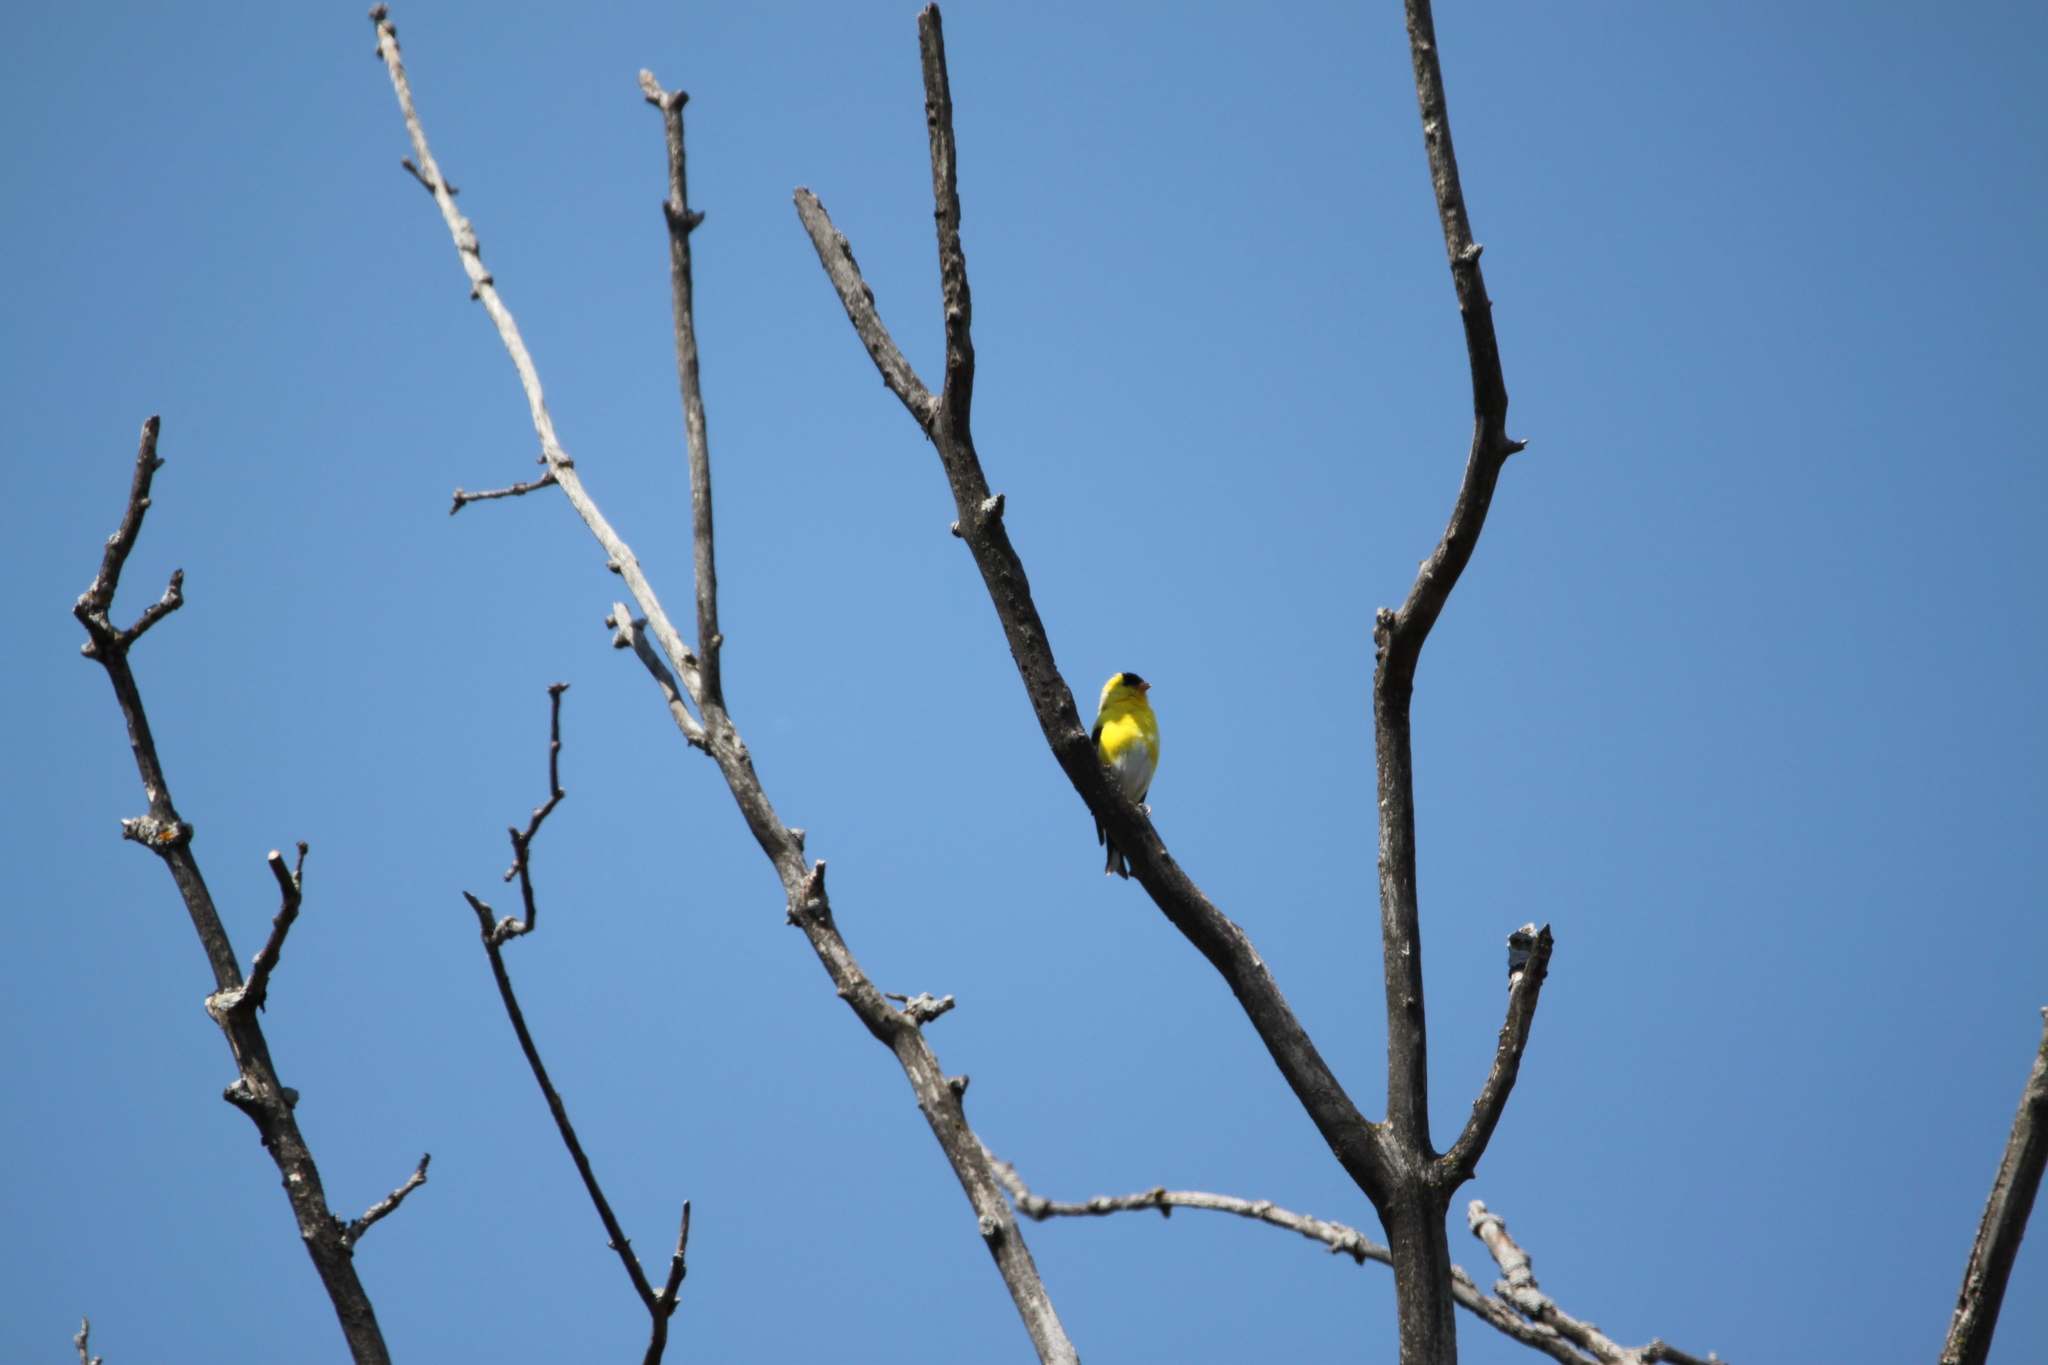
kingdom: Animalia
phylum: Chordata
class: Aves
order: Passeriformes
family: Fringillidae
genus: Spinus
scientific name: Spinus tristis
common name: American goldfinch
